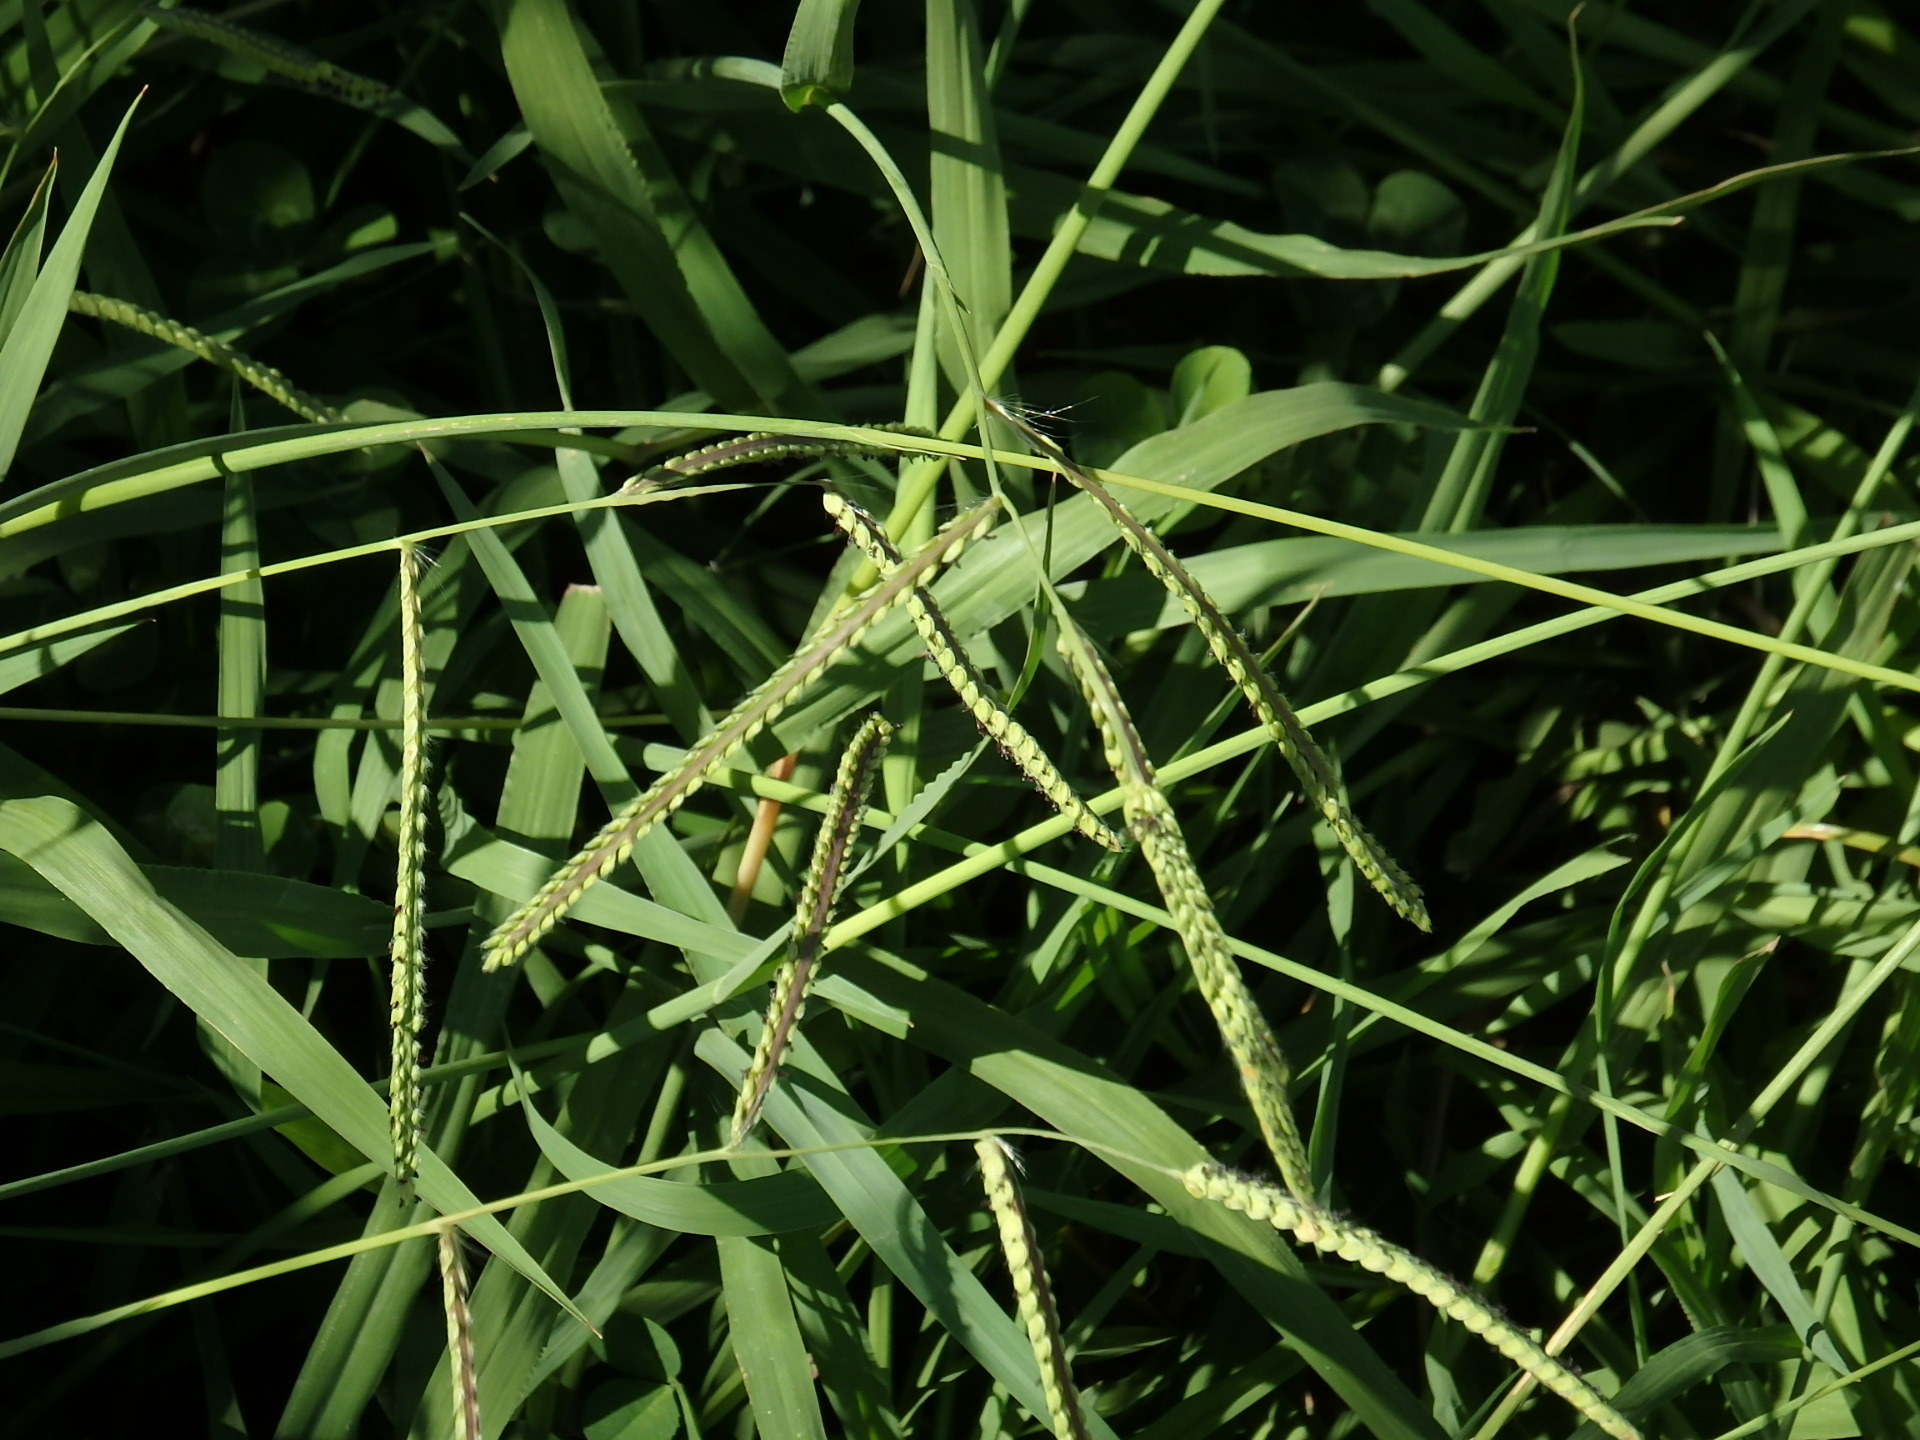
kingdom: Plantae
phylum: Tracheophyta
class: Liliopsida
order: Poales
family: Poaceae
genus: Paspalum
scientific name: Paspalum dilatatum
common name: Dallisgrass
